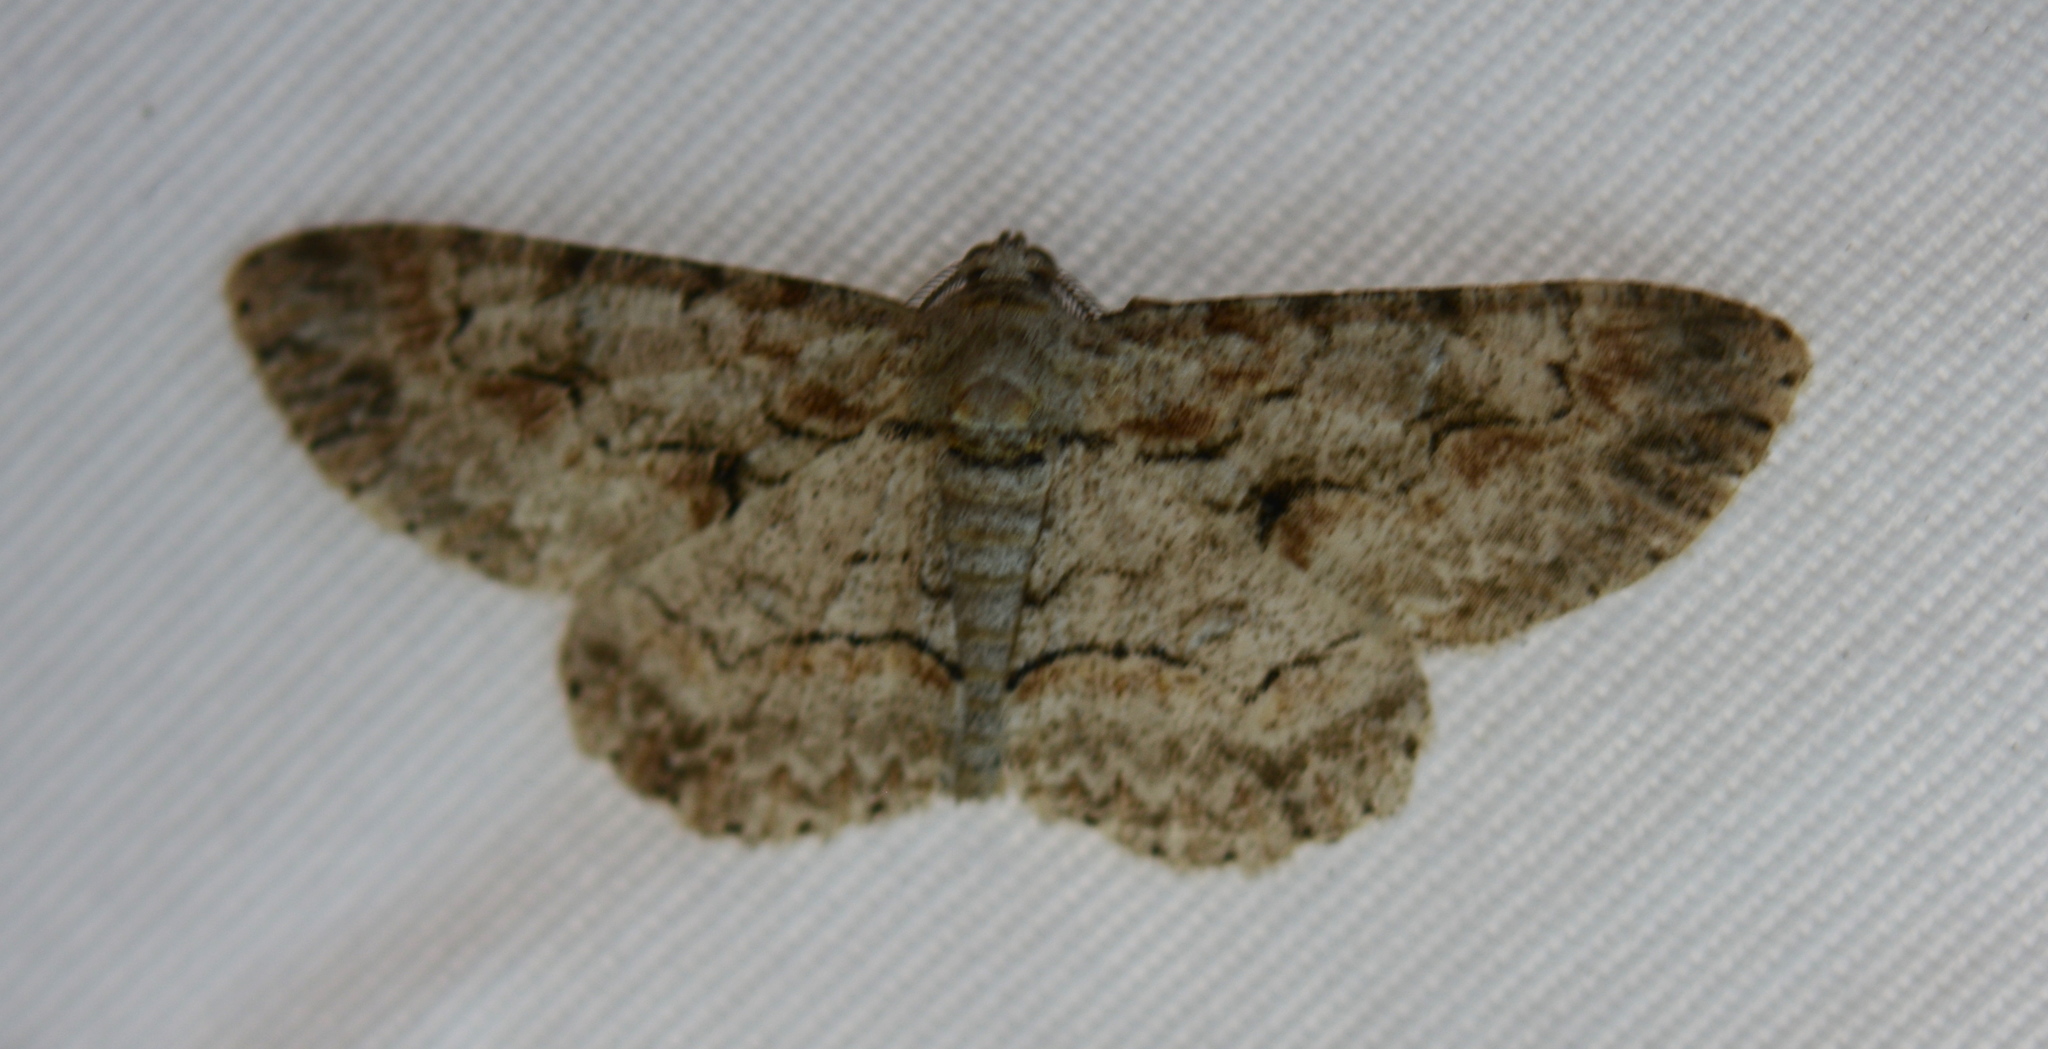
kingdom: Animalia
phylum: Arthropoda
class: Insecta
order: Lepidoptera
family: Geometridae
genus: Iridopsis
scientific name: Iridopsis defectaria
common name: Brown-shaded gray
